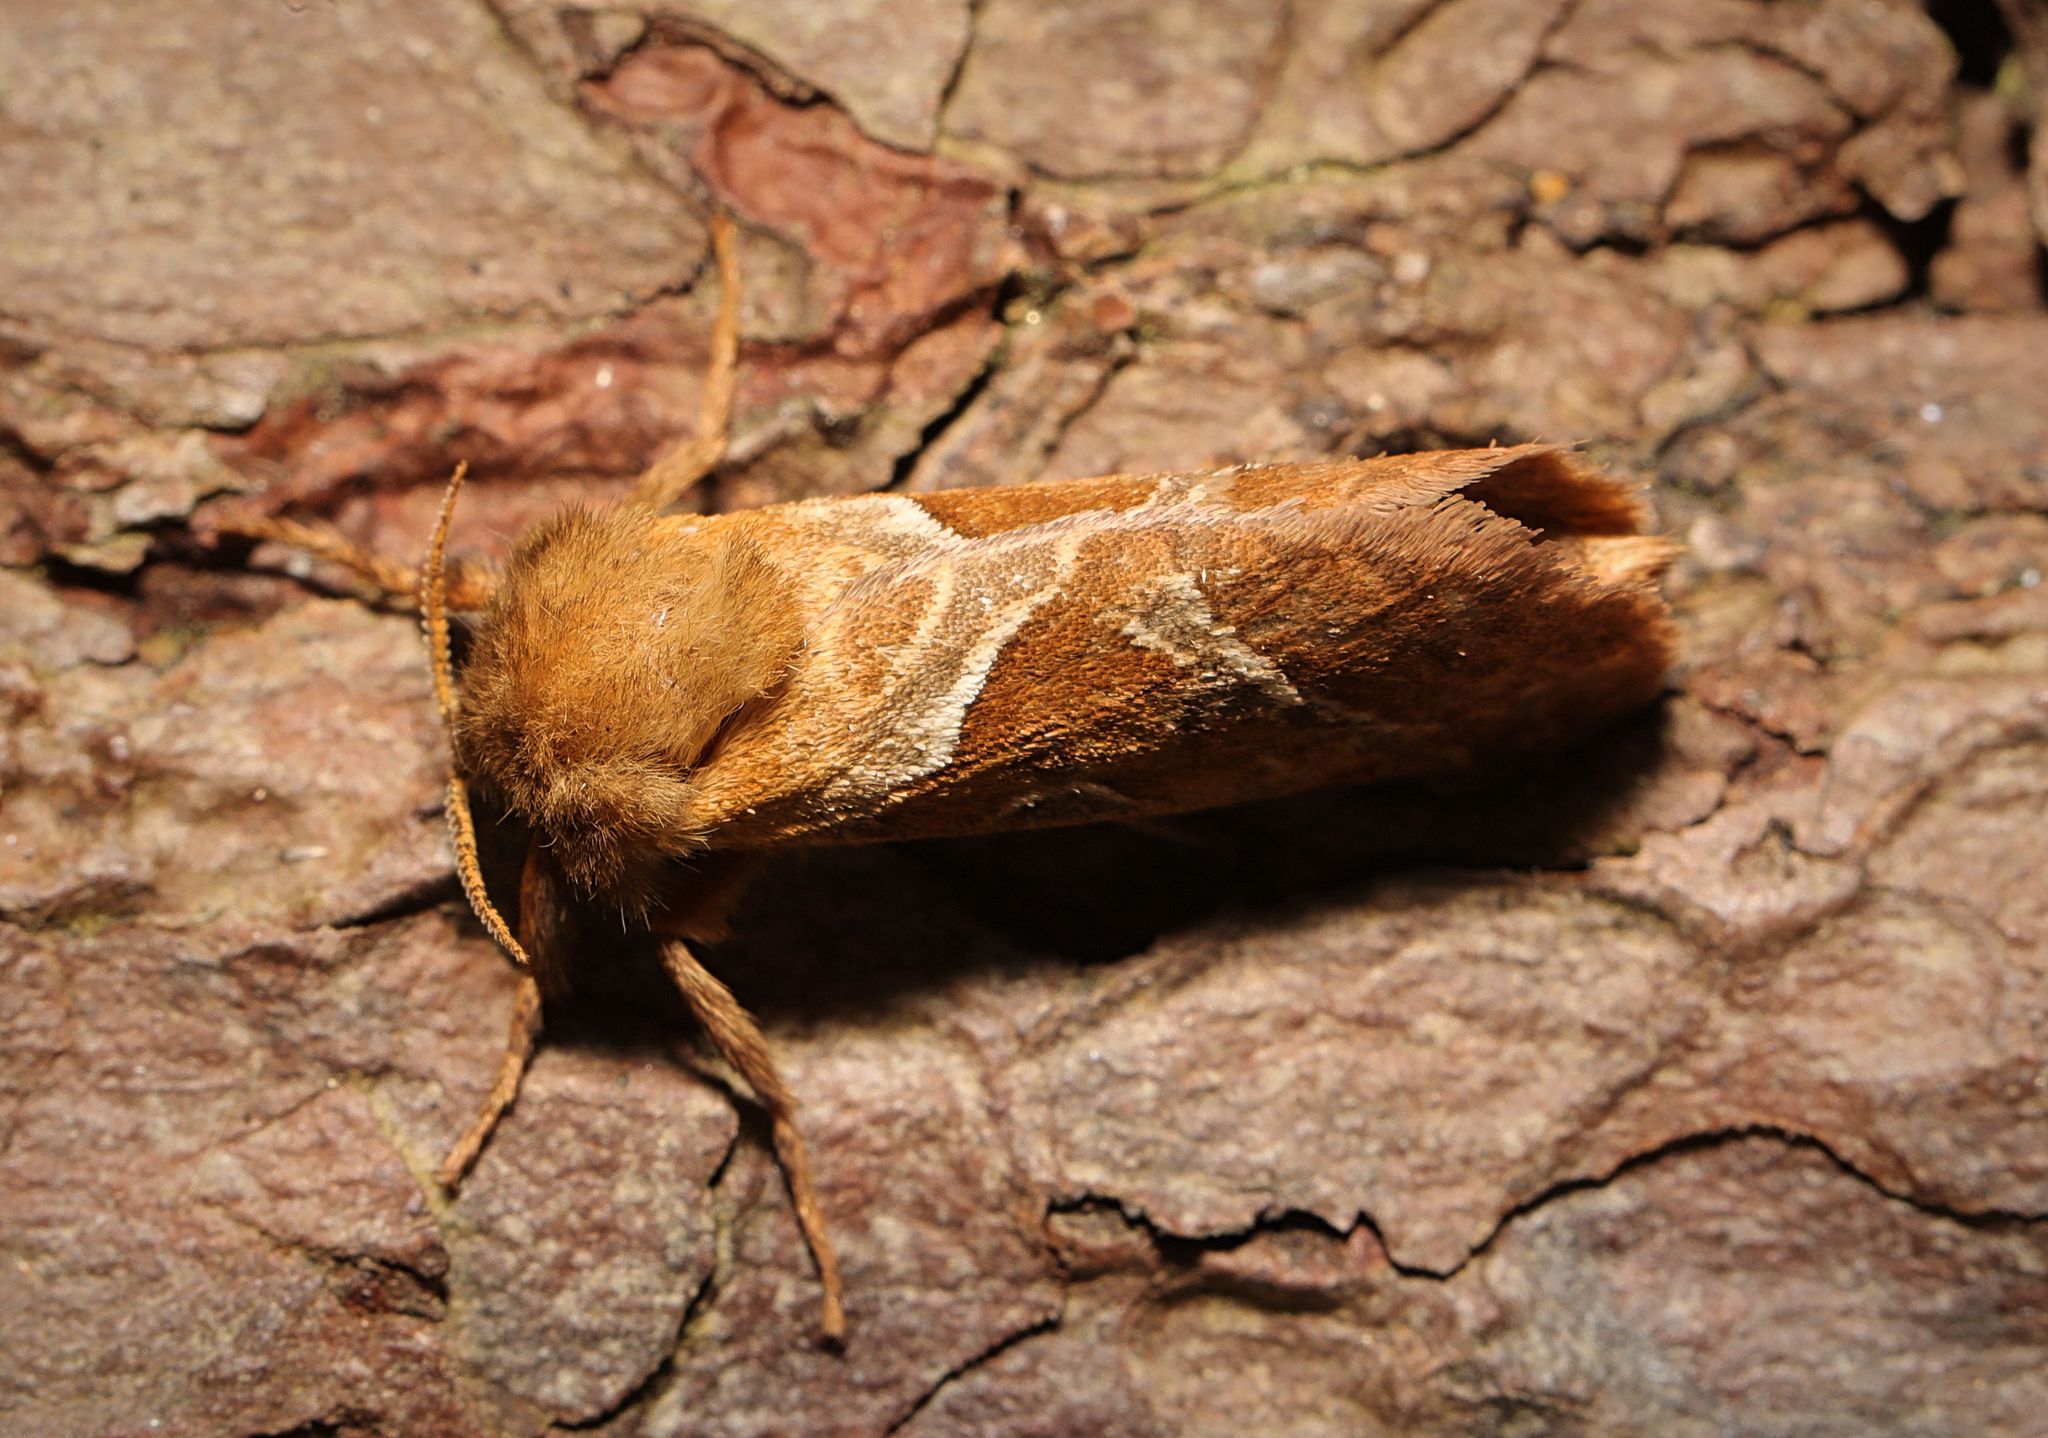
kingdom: Animalia
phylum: Arthropoda
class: Insecta
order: Lepidoptera
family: Hepialidae
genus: Triodia
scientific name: Triodia sylvina
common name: Orange swift
